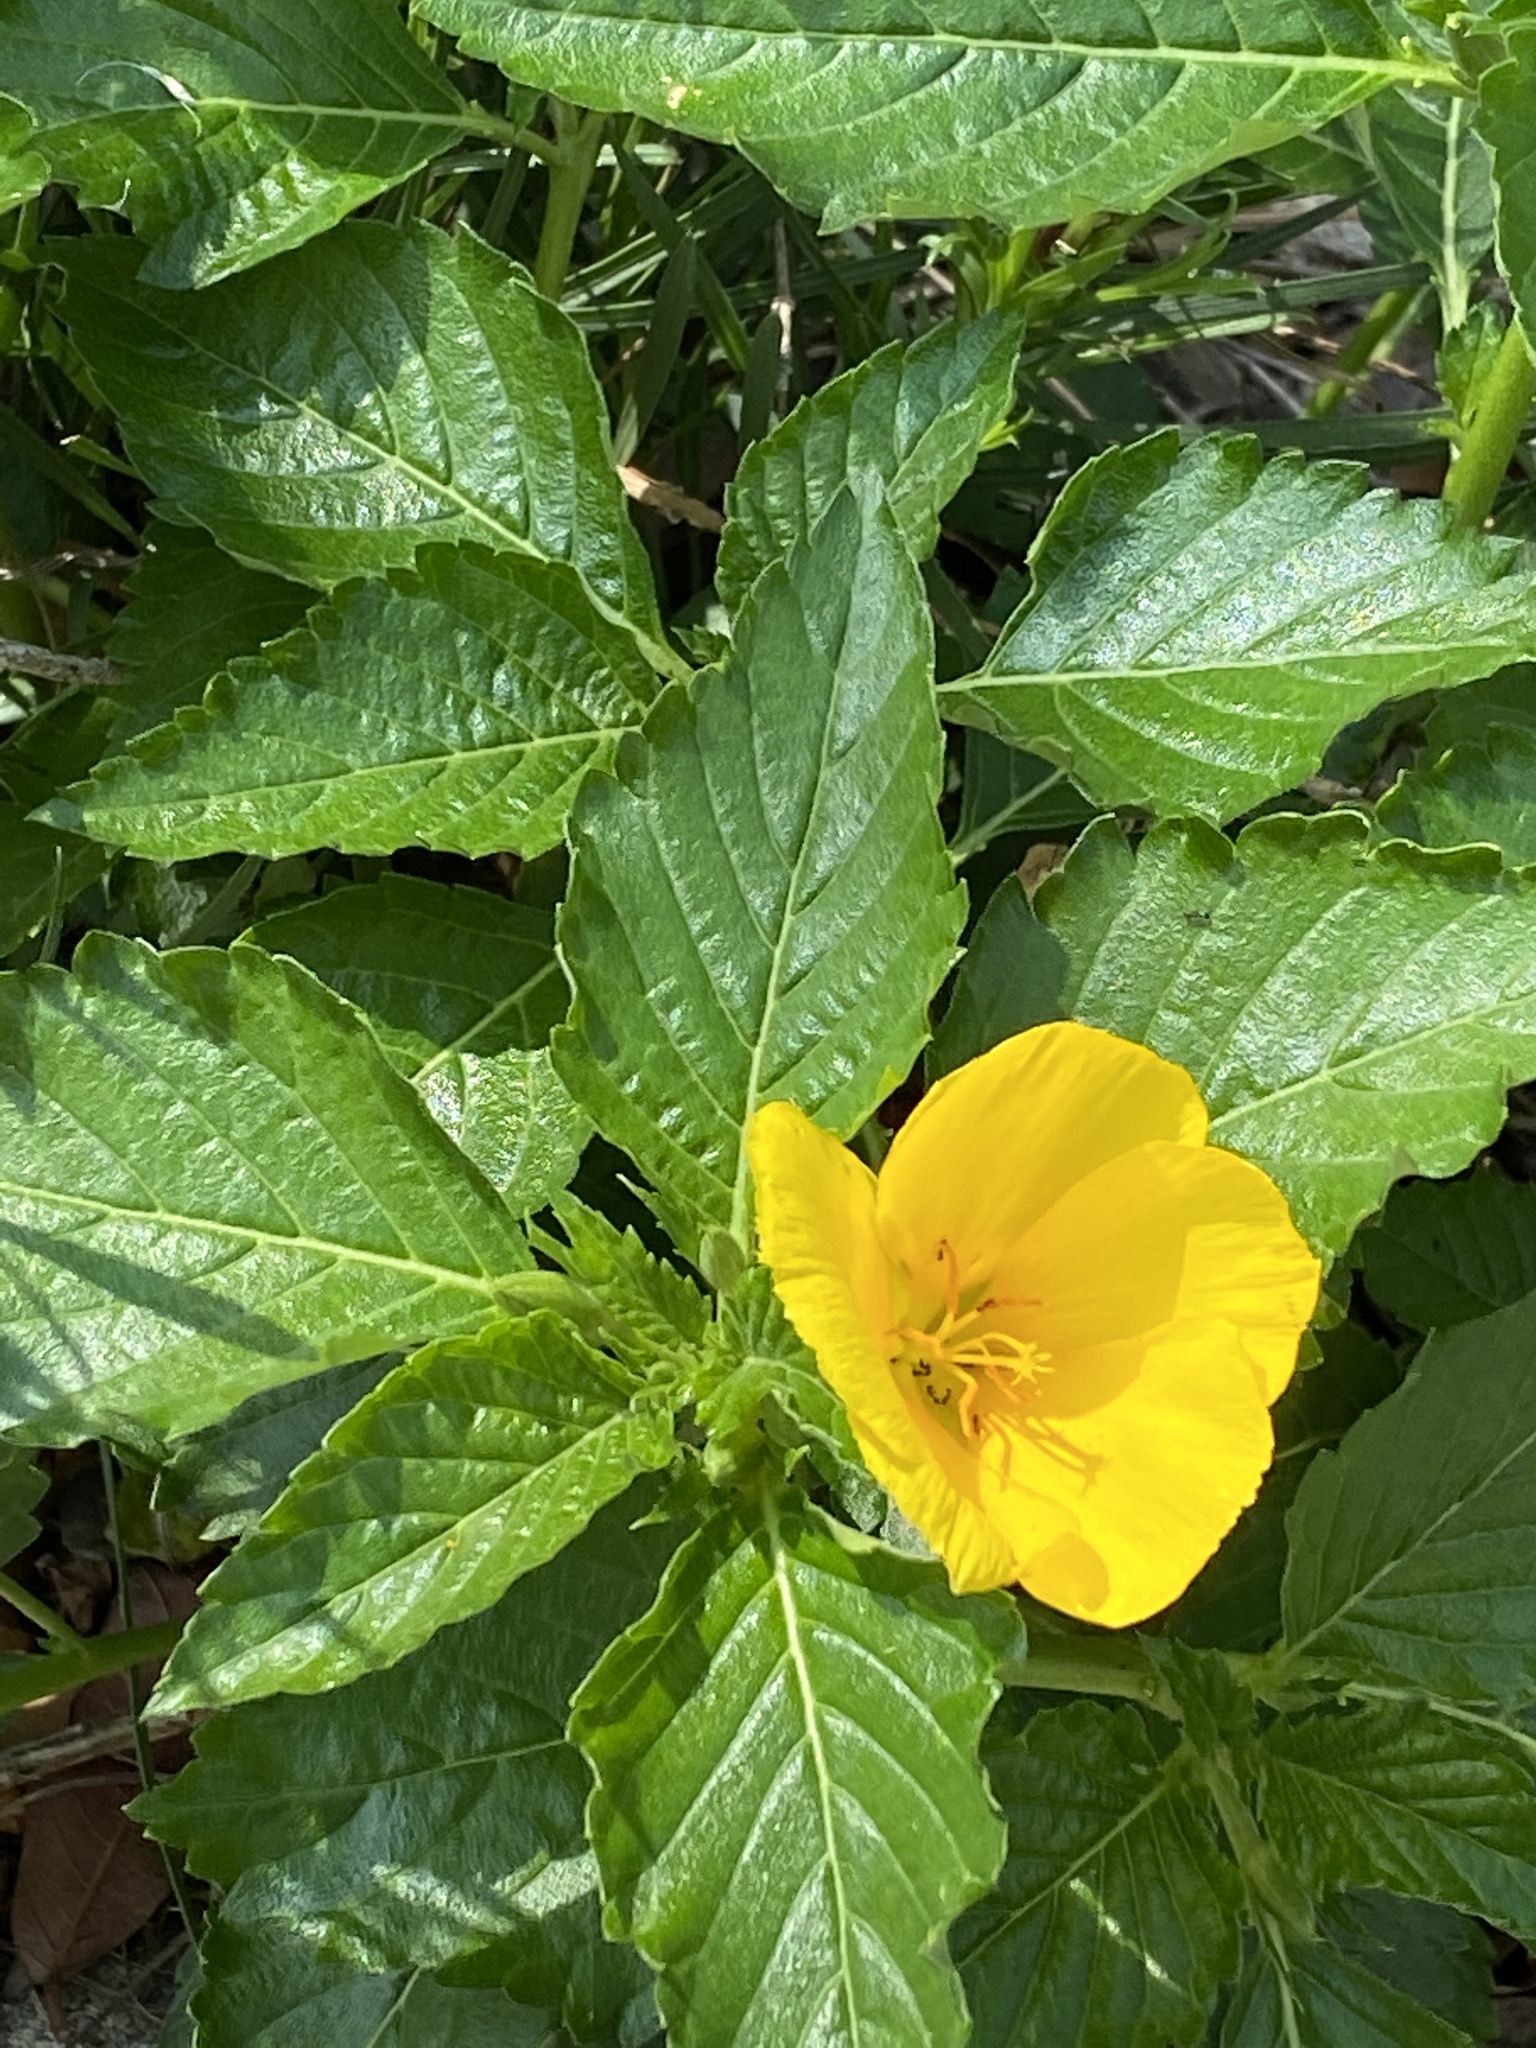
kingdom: Plantae
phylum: Tracheophyta
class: Magnoliopsida
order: Malpighiales
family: Turneraceae
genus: Turnera
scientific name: Turnera ulmifolia
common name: Ramgoat dashalong
